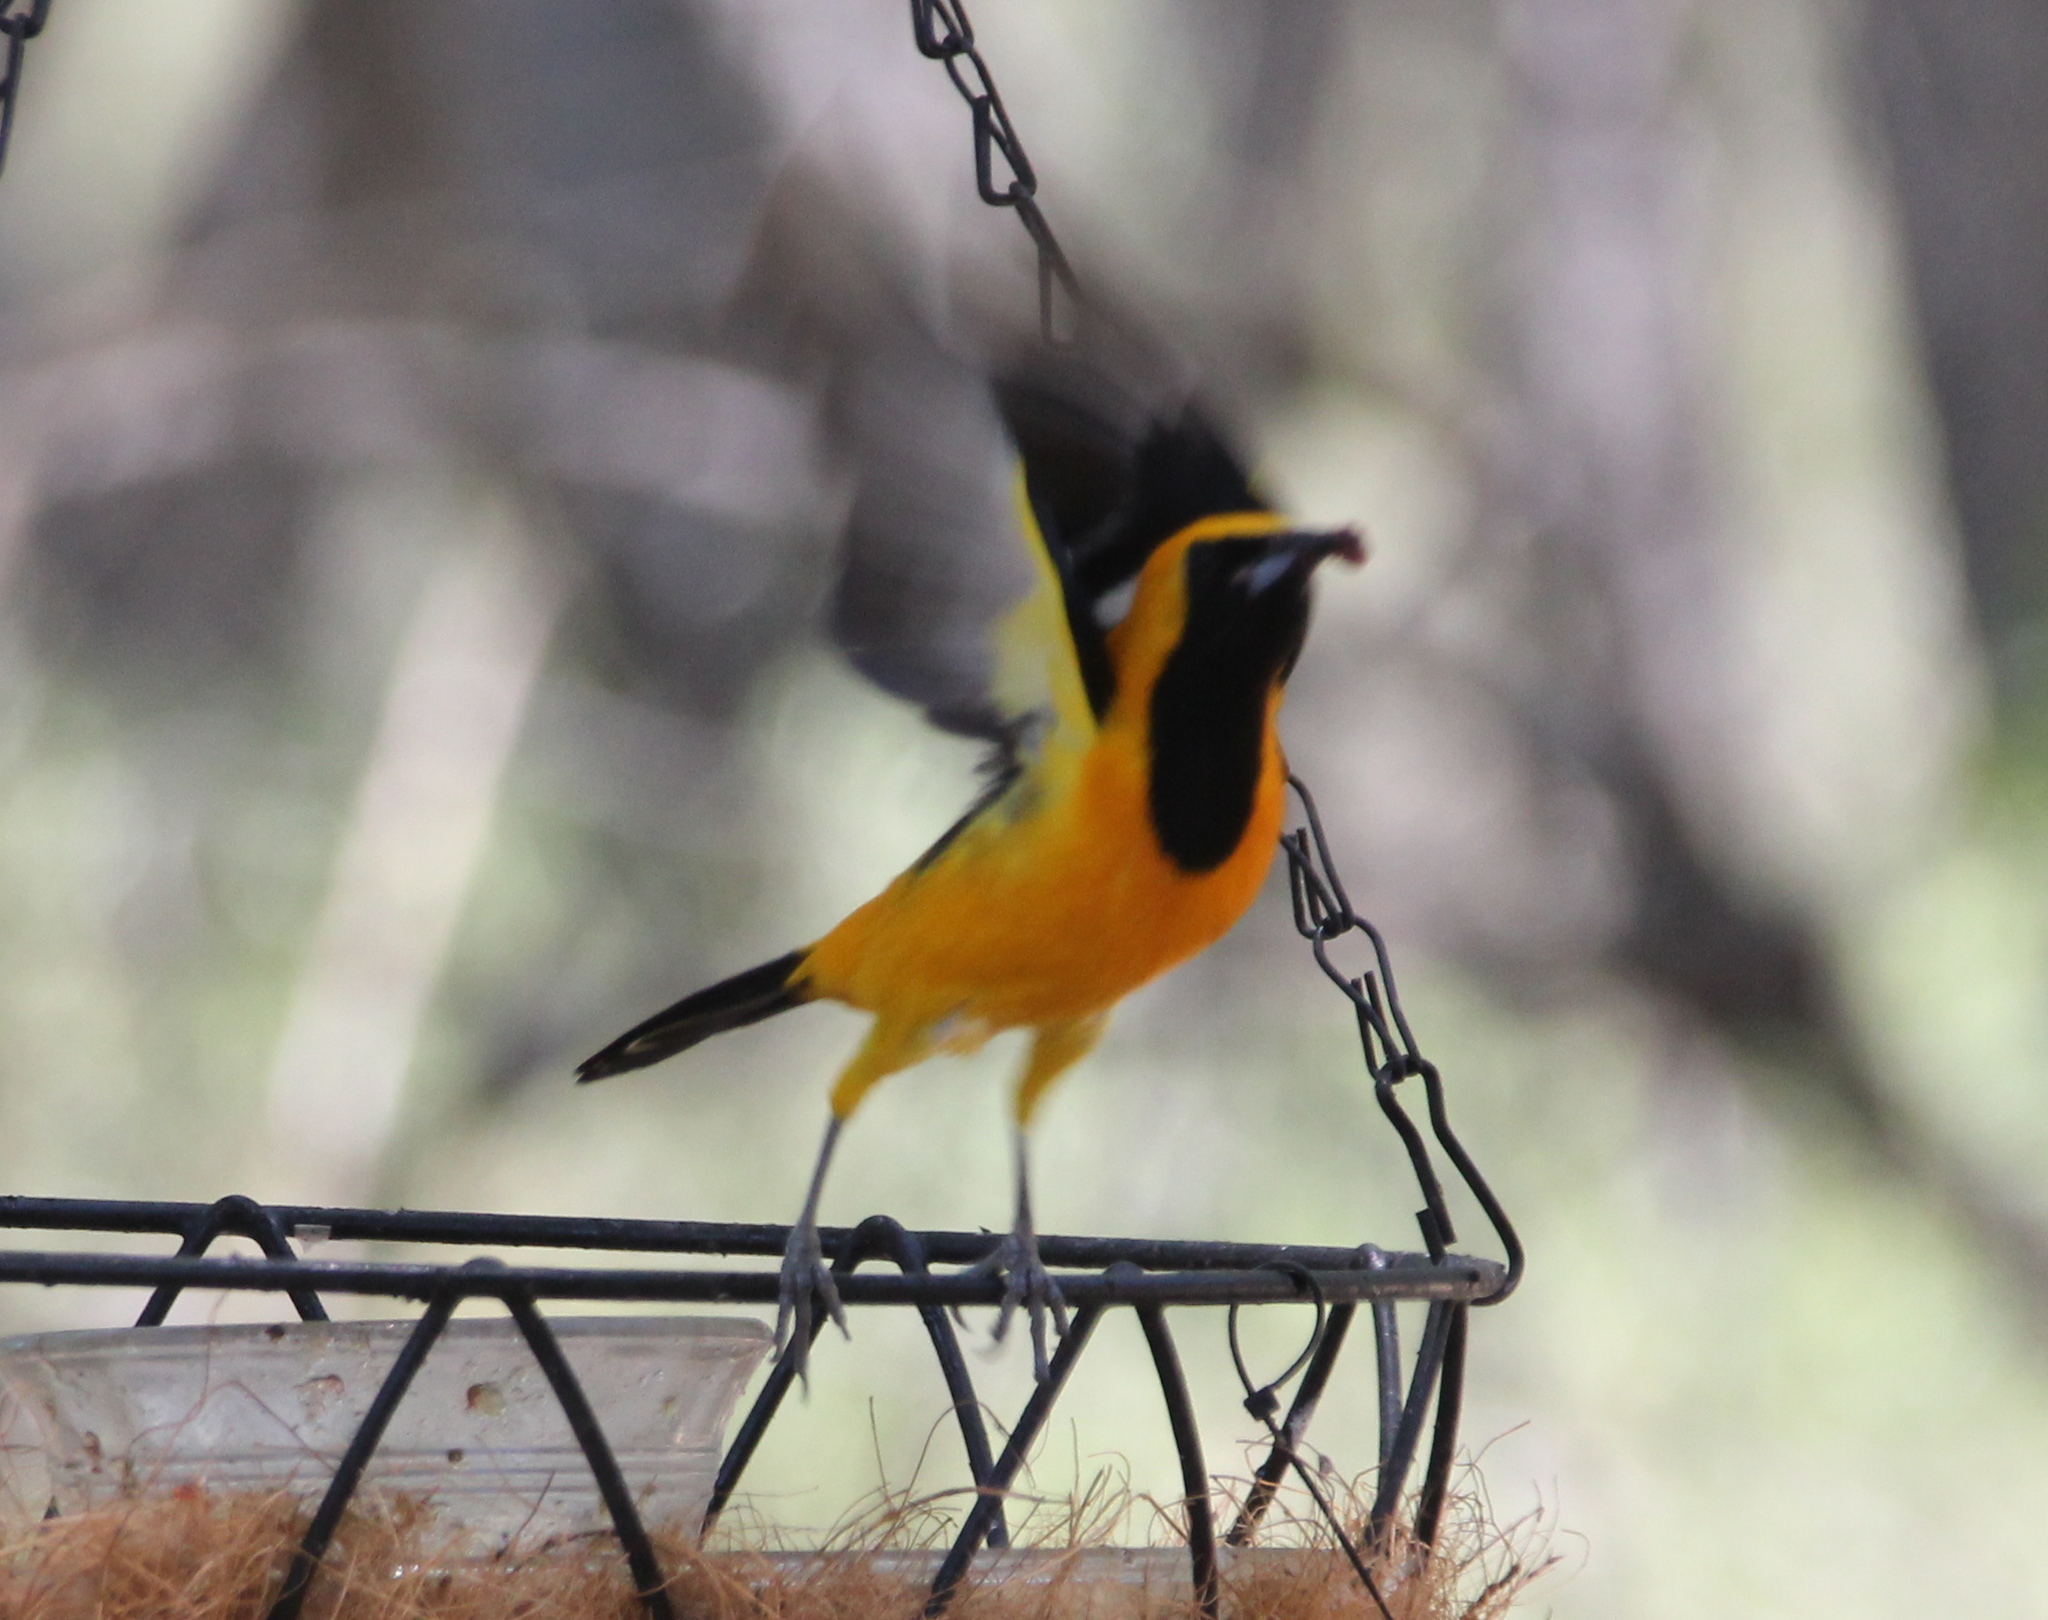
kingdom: Animalia
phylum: Chordata
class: Aves
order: Passeriformes
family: Icteridae
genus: Icterus
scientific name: Icterus cucullatus
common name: Hooded oriole
